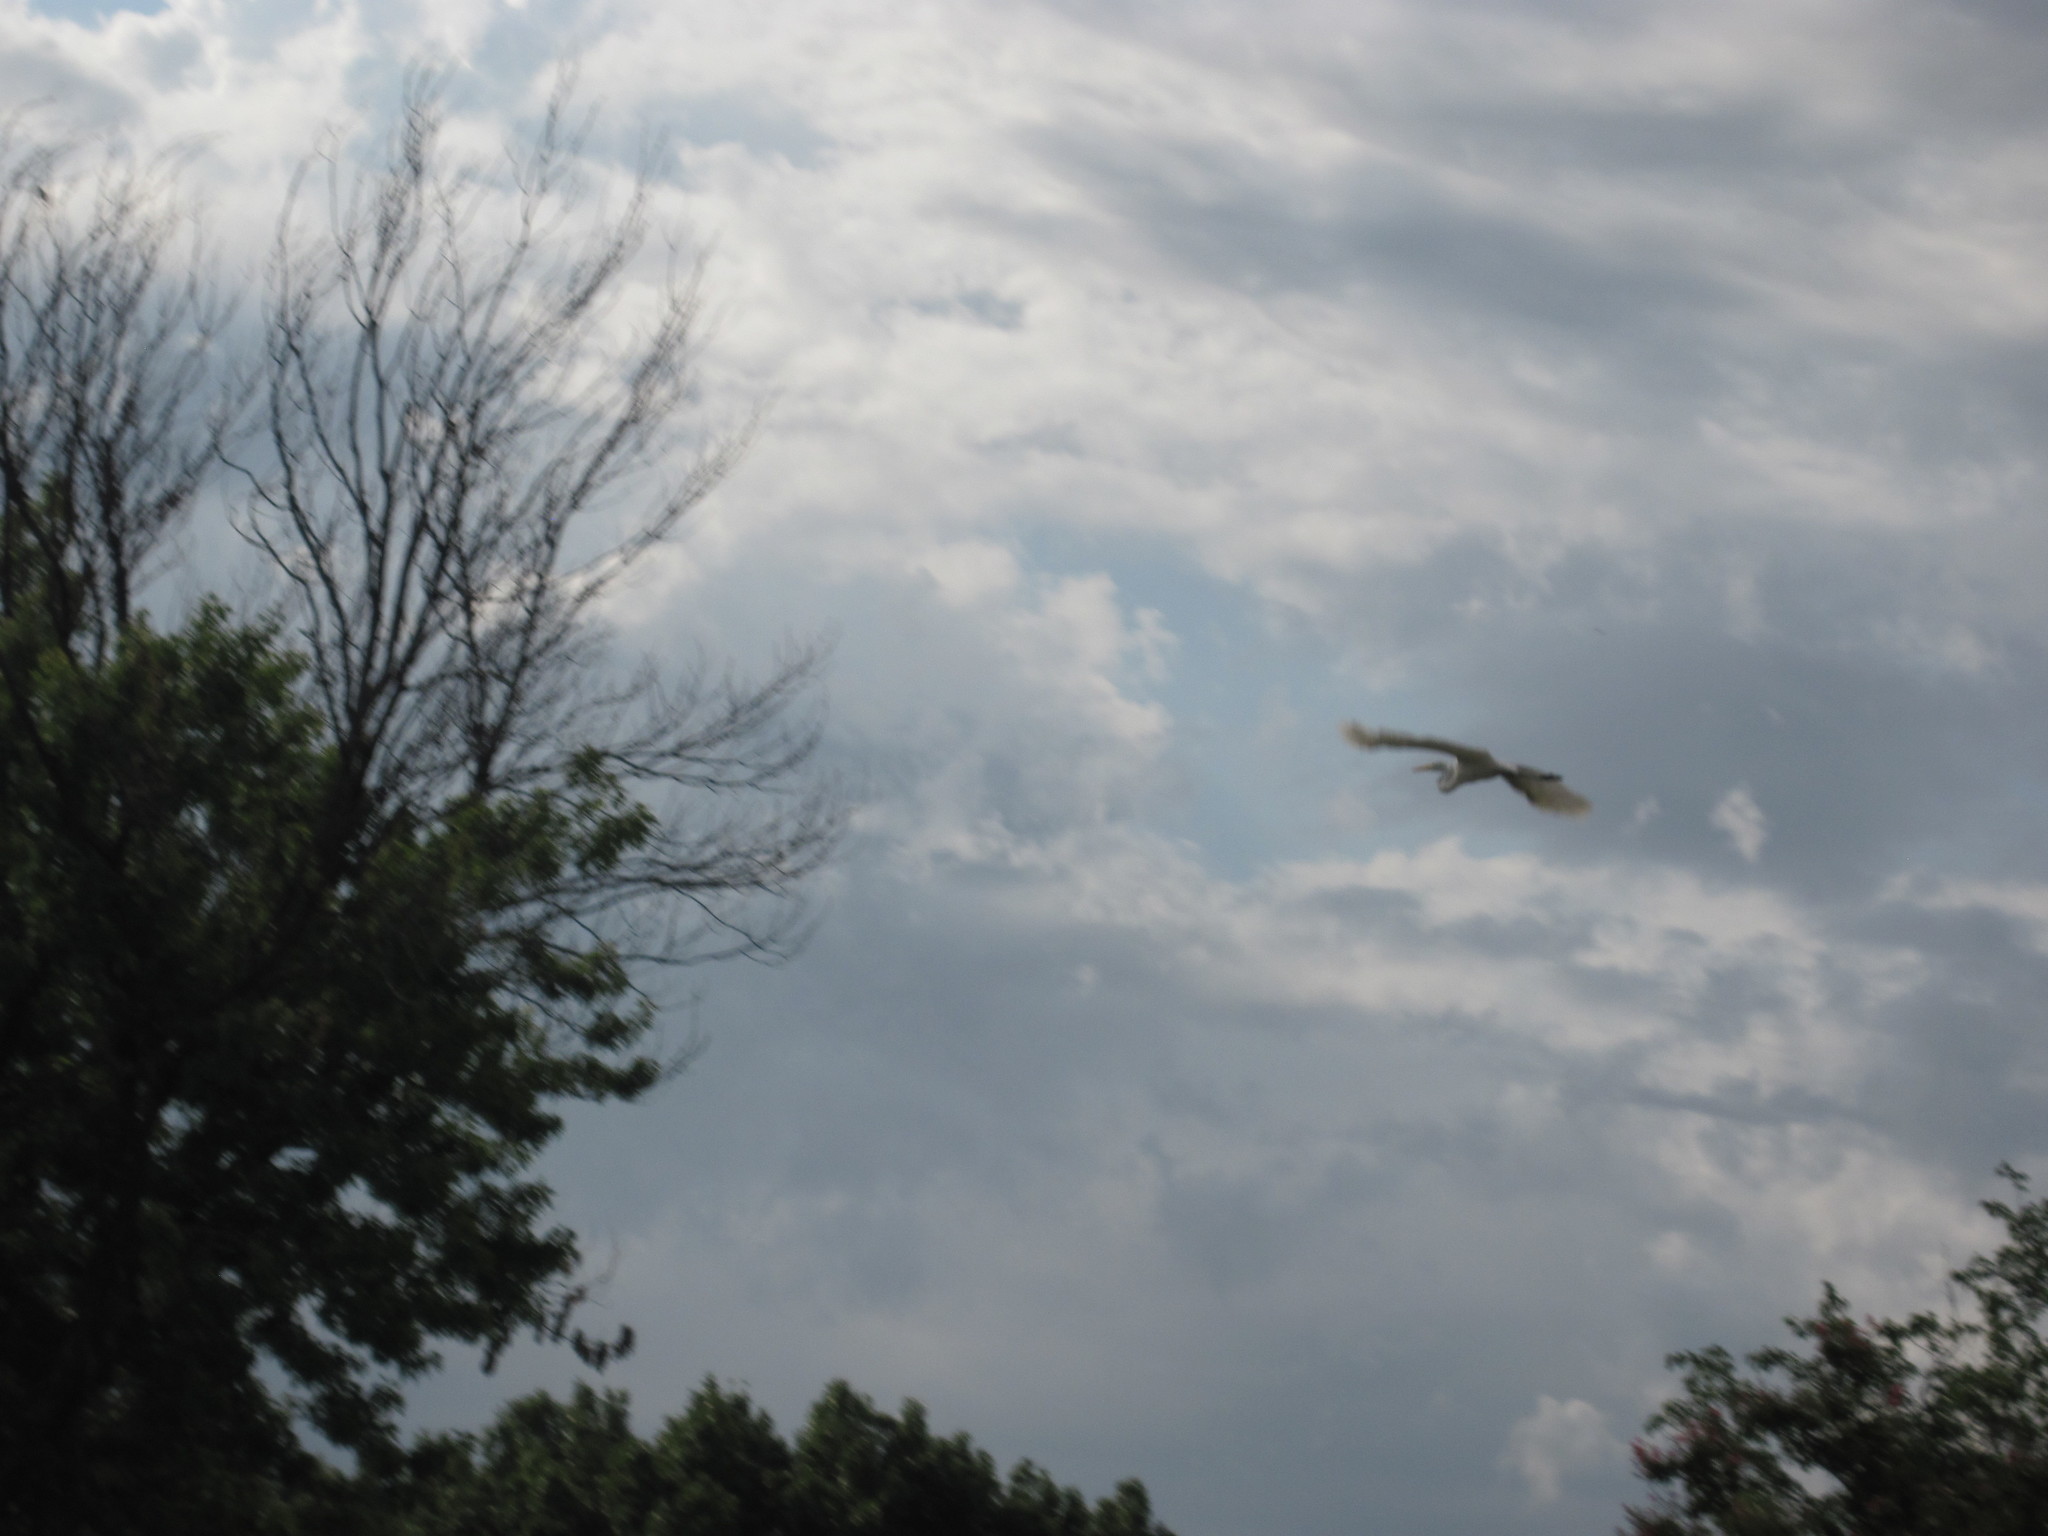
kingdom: Animalia
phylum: Chordata
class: Aves
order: Pelecaniformes
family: Ardeidae
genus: Ardea
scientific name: Ardea alba
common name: Great egret
